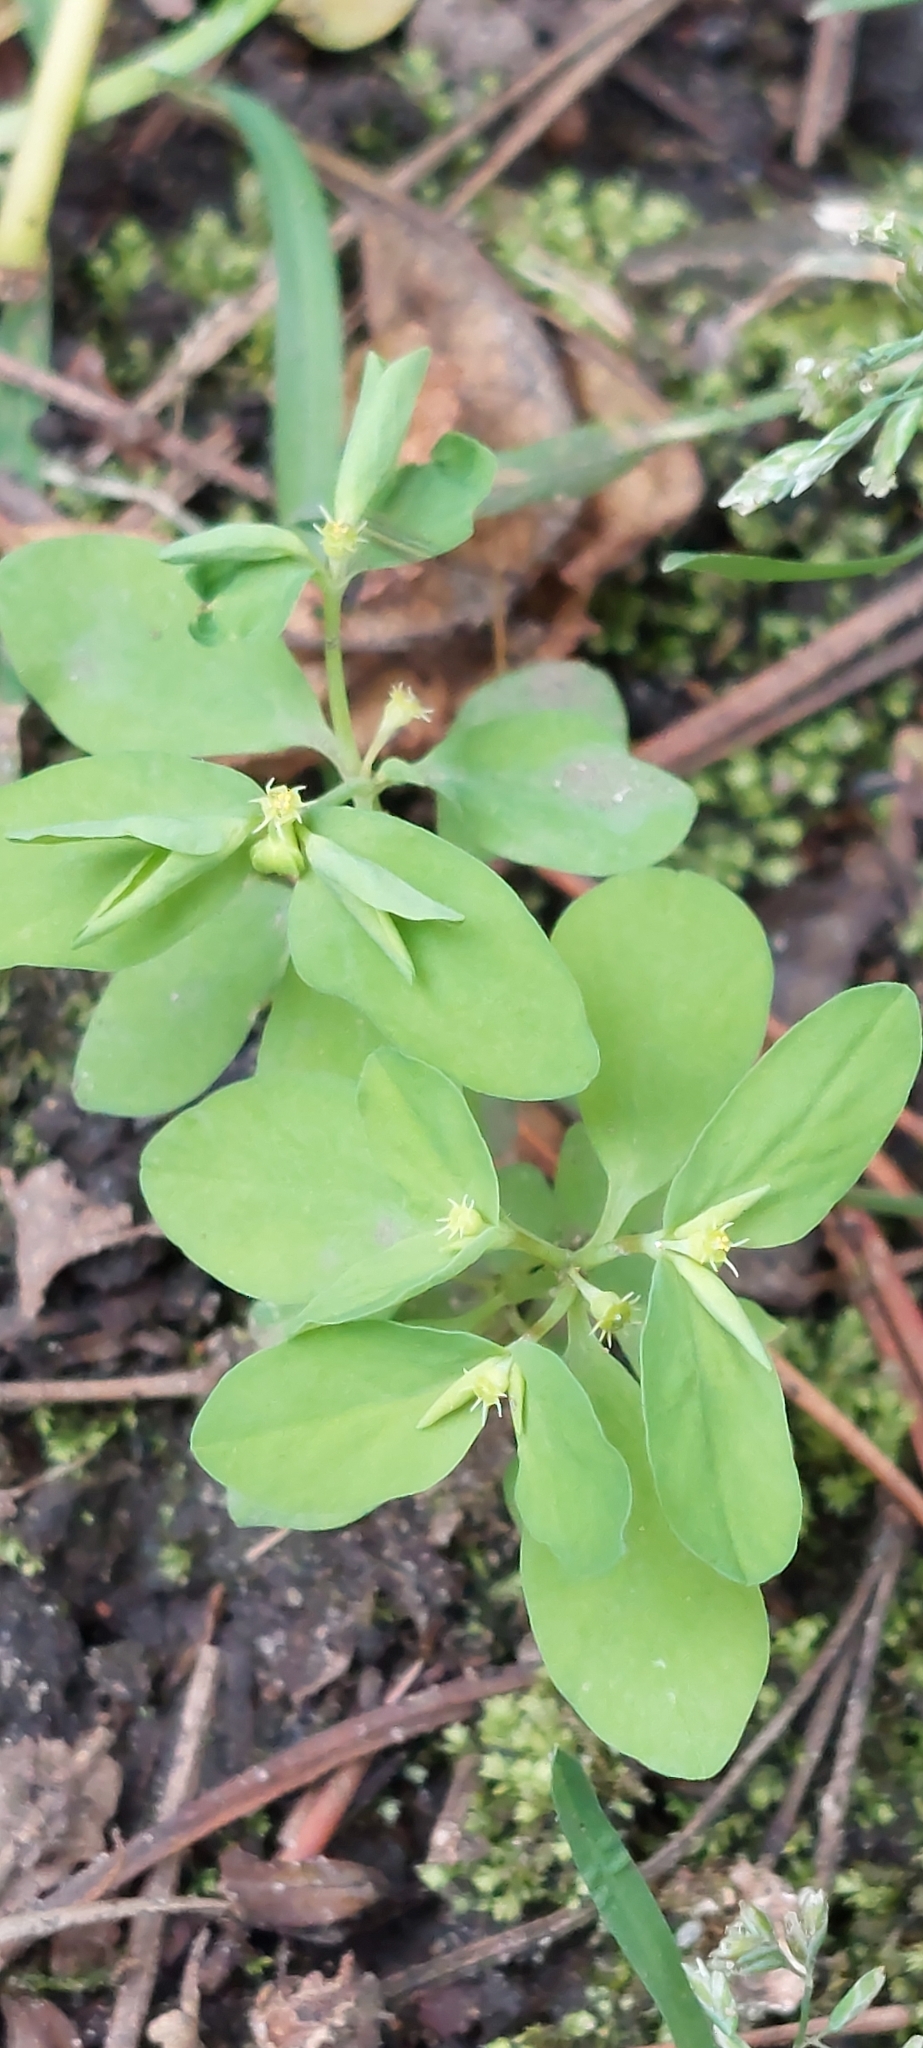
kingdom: Plantae
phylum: Tracheophyta
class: Magnoliopsida
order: Malpighiales
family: Euphorbiaceae
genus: Euphorbia
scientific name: Euphorbia peplus
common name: Petty spurge
